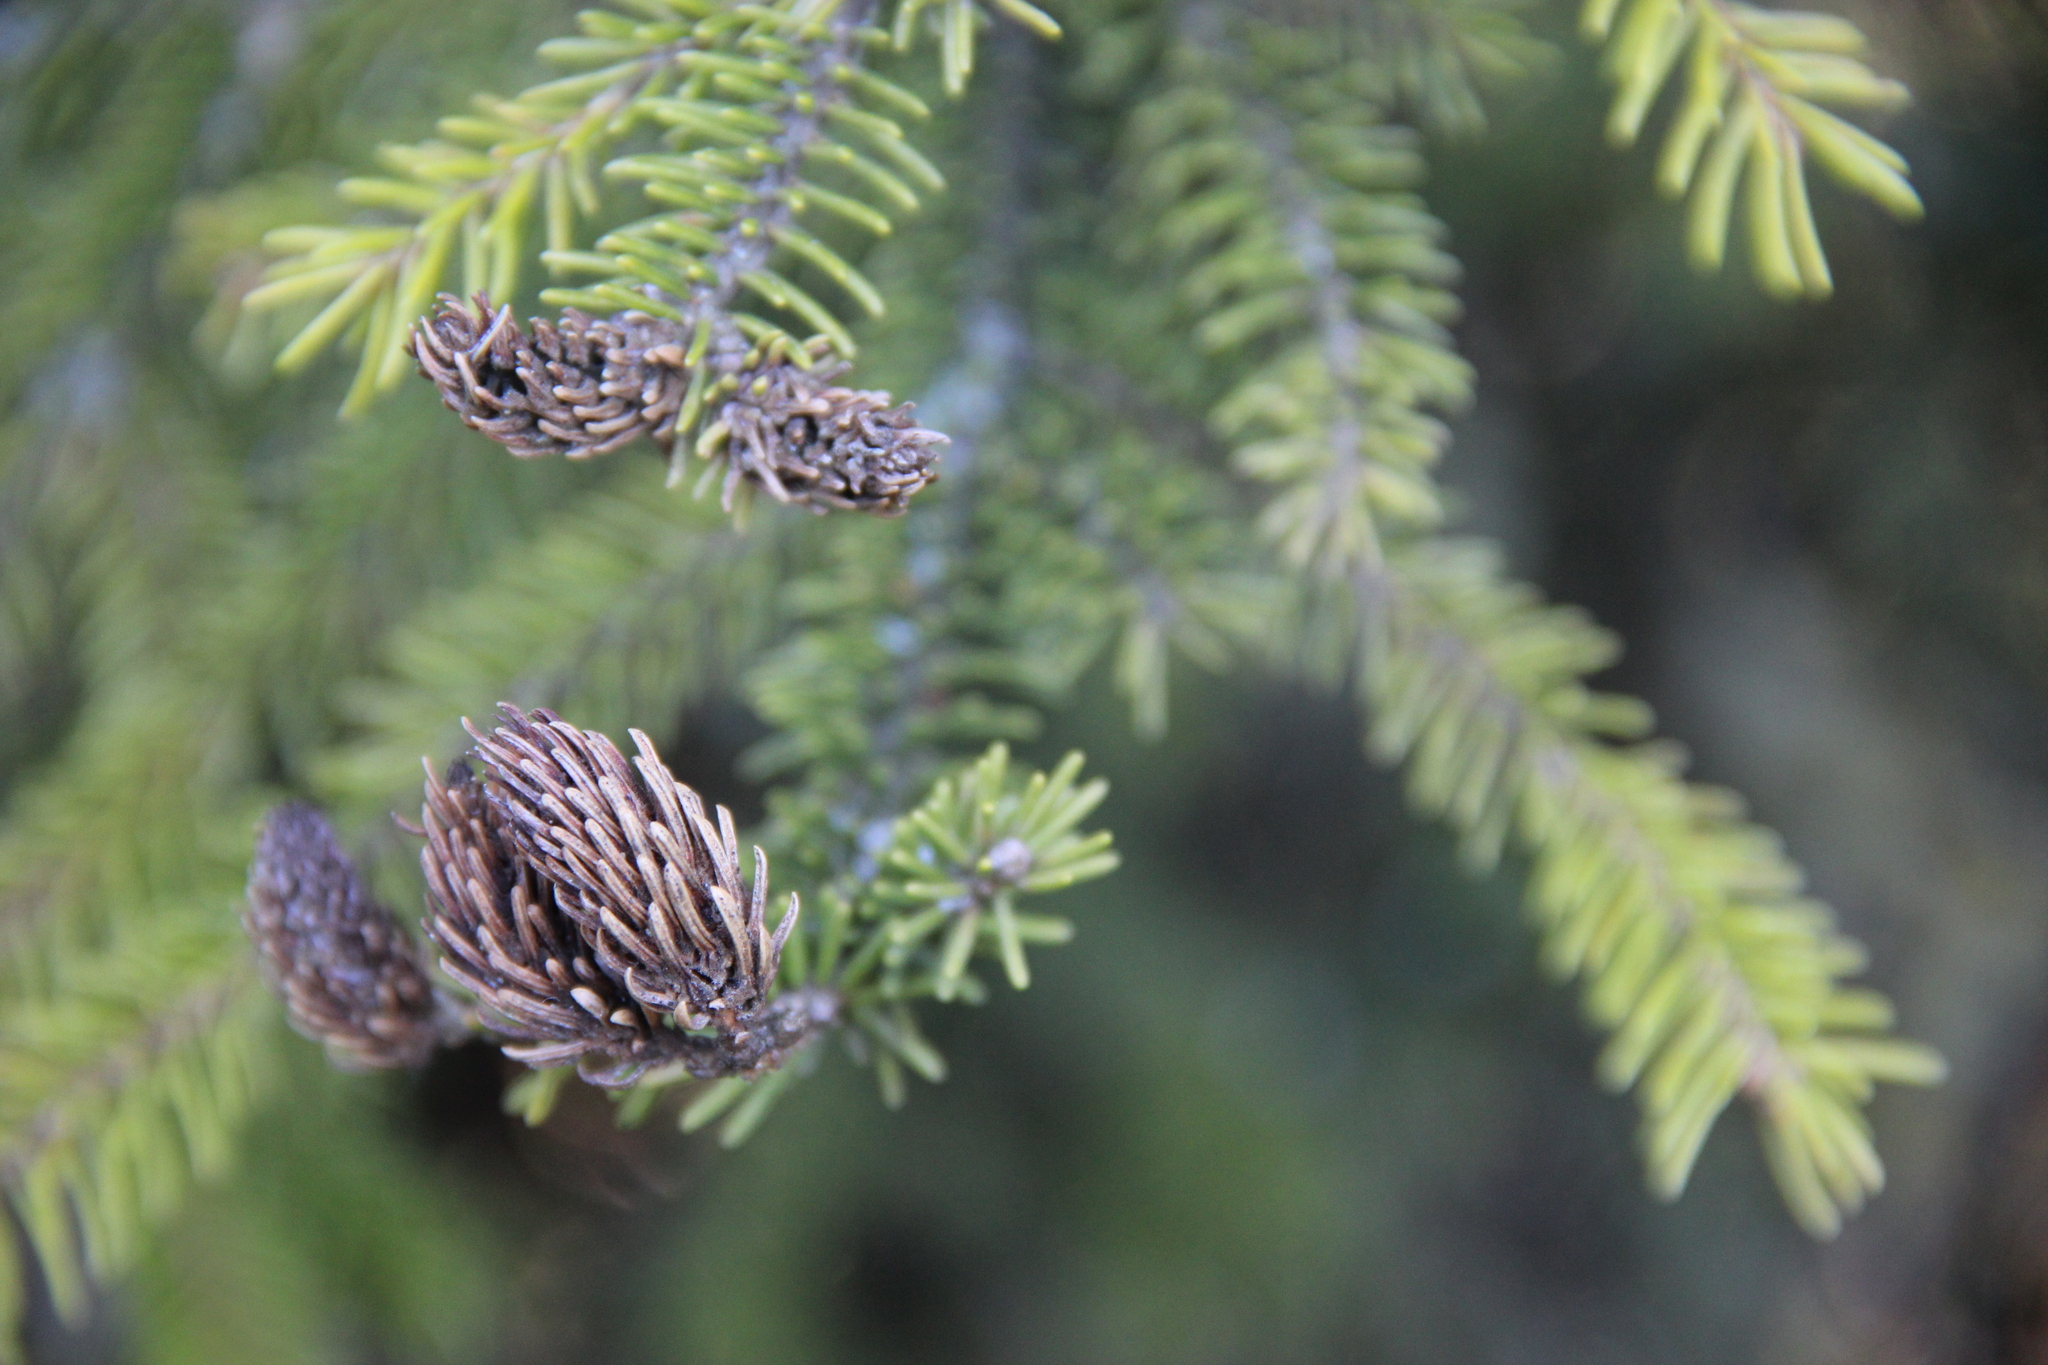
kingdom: Animalia
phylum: Arthropoda
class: Insecta
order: Hemiptera
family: Adelgidae
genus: Adelges
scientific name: Adelges abietis
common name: Eastern spruce gall adelgid
